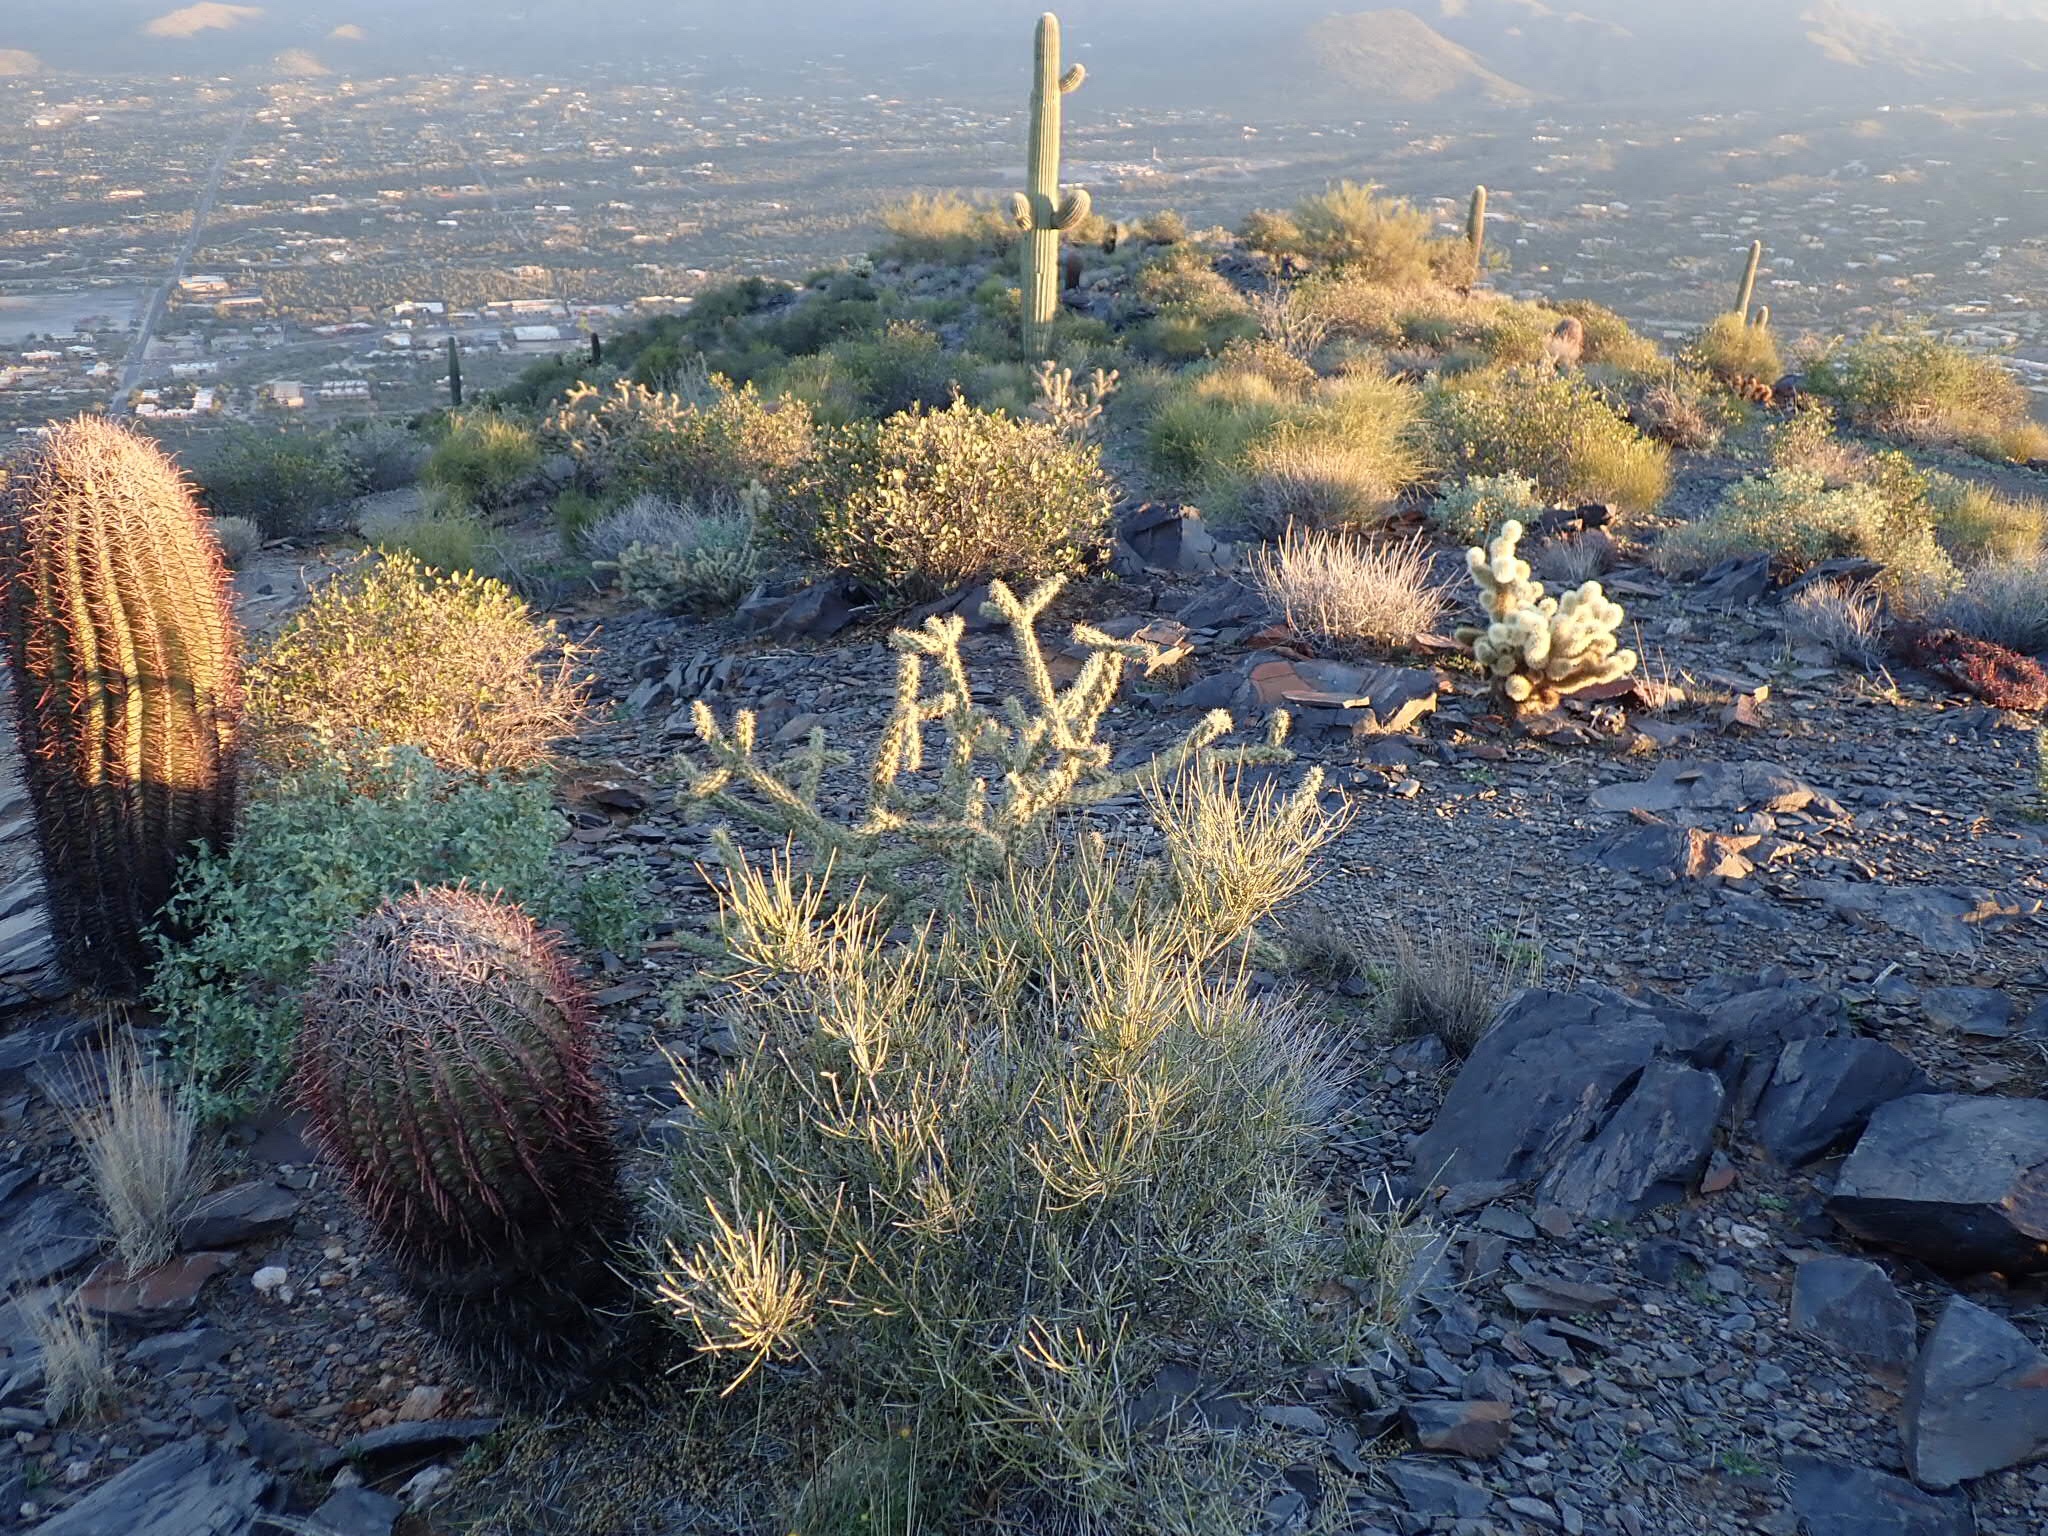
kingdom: Plantae
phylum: Tracheophyta
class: Magnoliopsida
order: Caryophyllales
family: Cactaceae
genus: Ferocactus
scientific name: Ferocactus cylindraceus
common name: California barrel cactus
